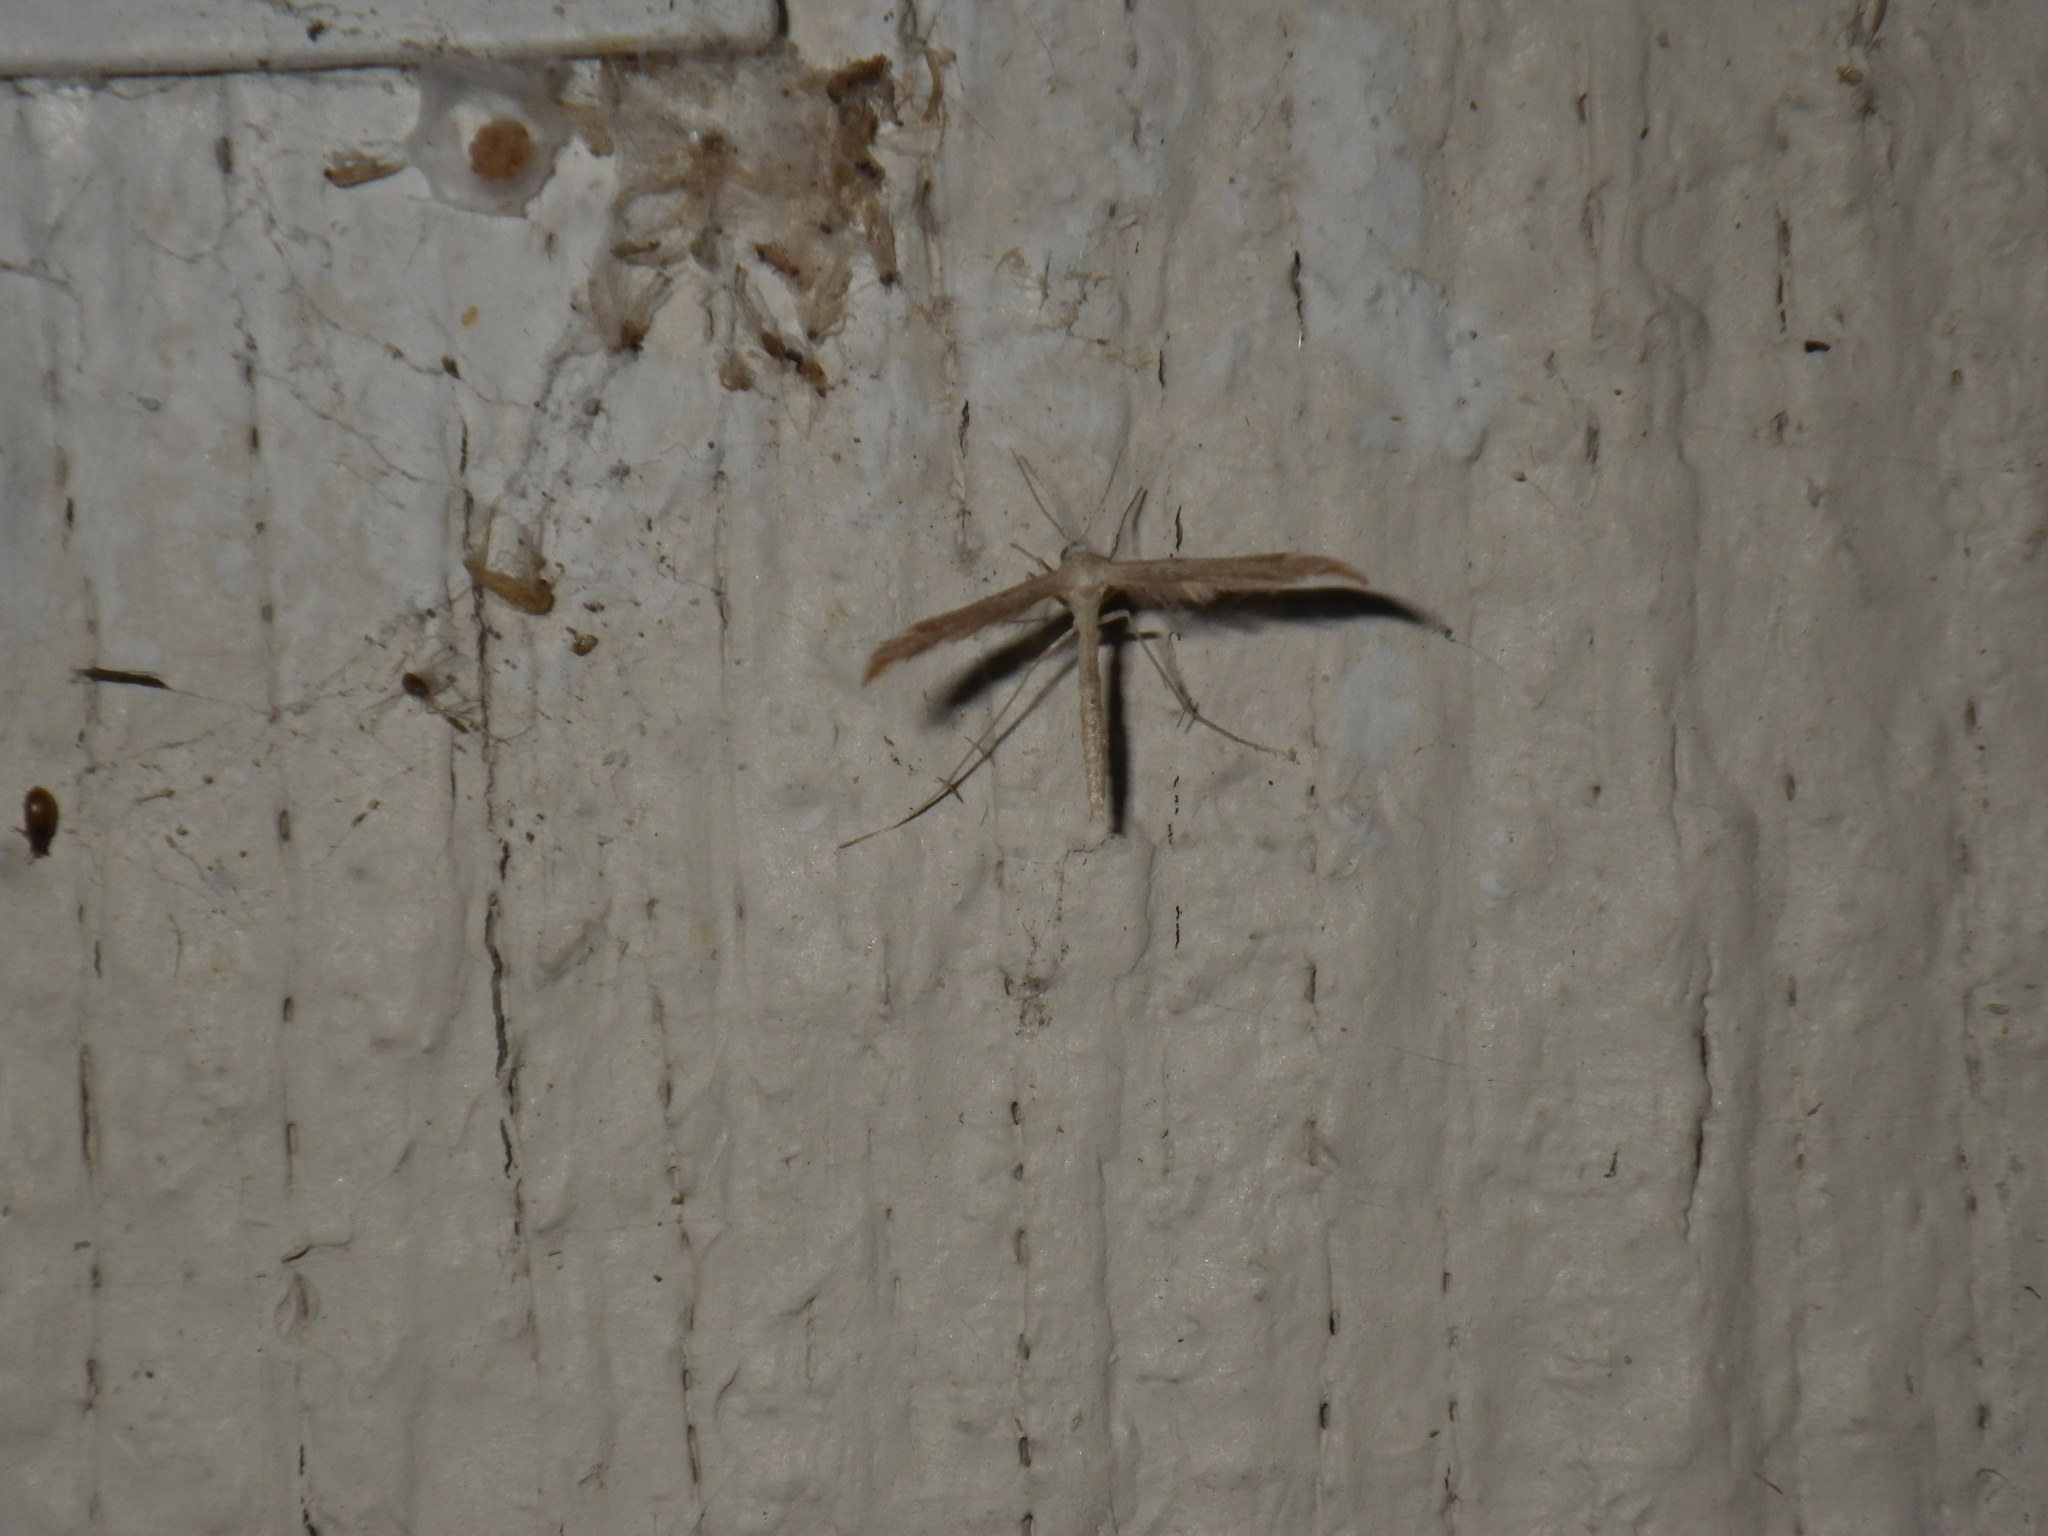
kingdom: Animalia
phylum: Arthropoda
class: Insecta
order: Lepidoptera
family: Pterophoridae
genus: Lioptilodes
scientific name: Lioptilodes albistriolatus
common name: Moth
